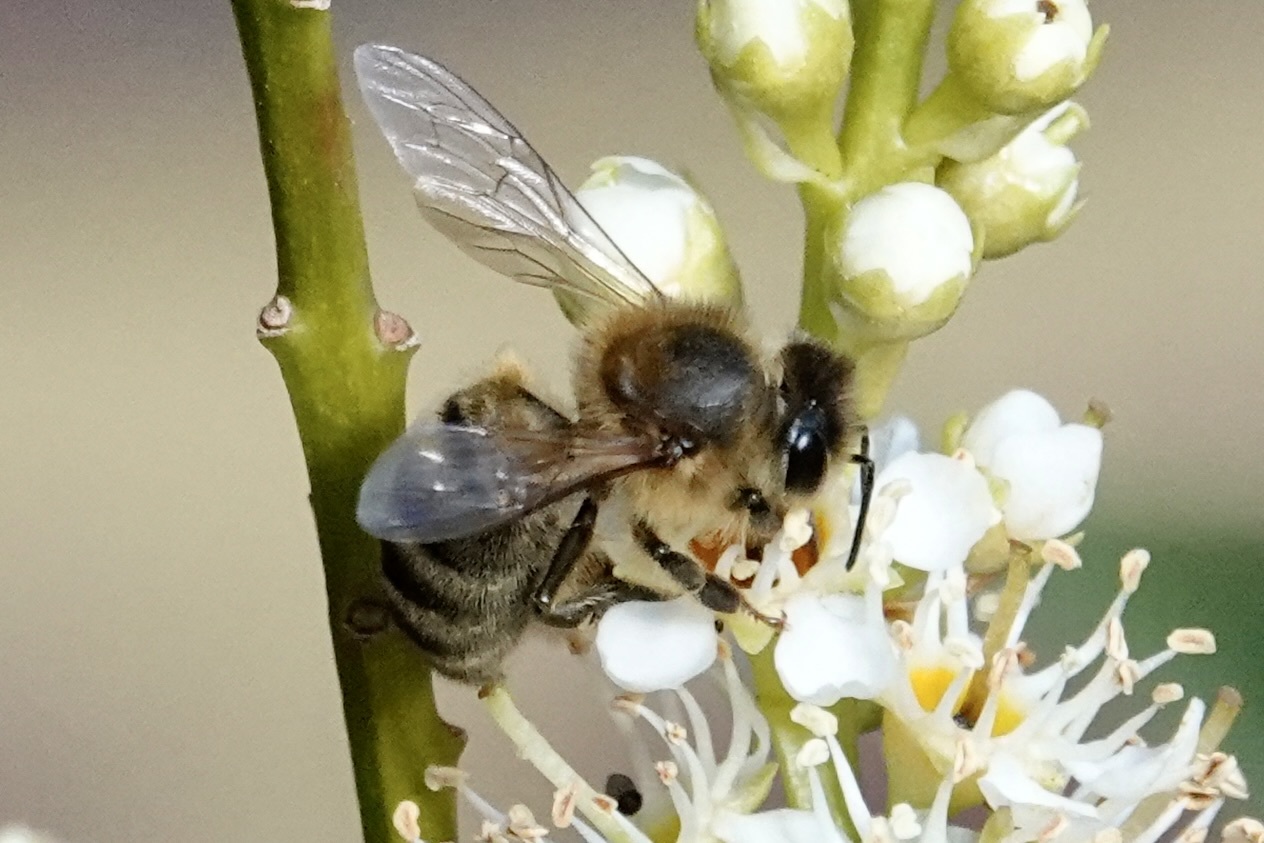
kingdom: Animalia
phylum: Arthropoda
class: Insecta
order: Hymenoptera
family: Apidae
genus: Apis
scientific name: Apis mellifera
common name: Honey bee
